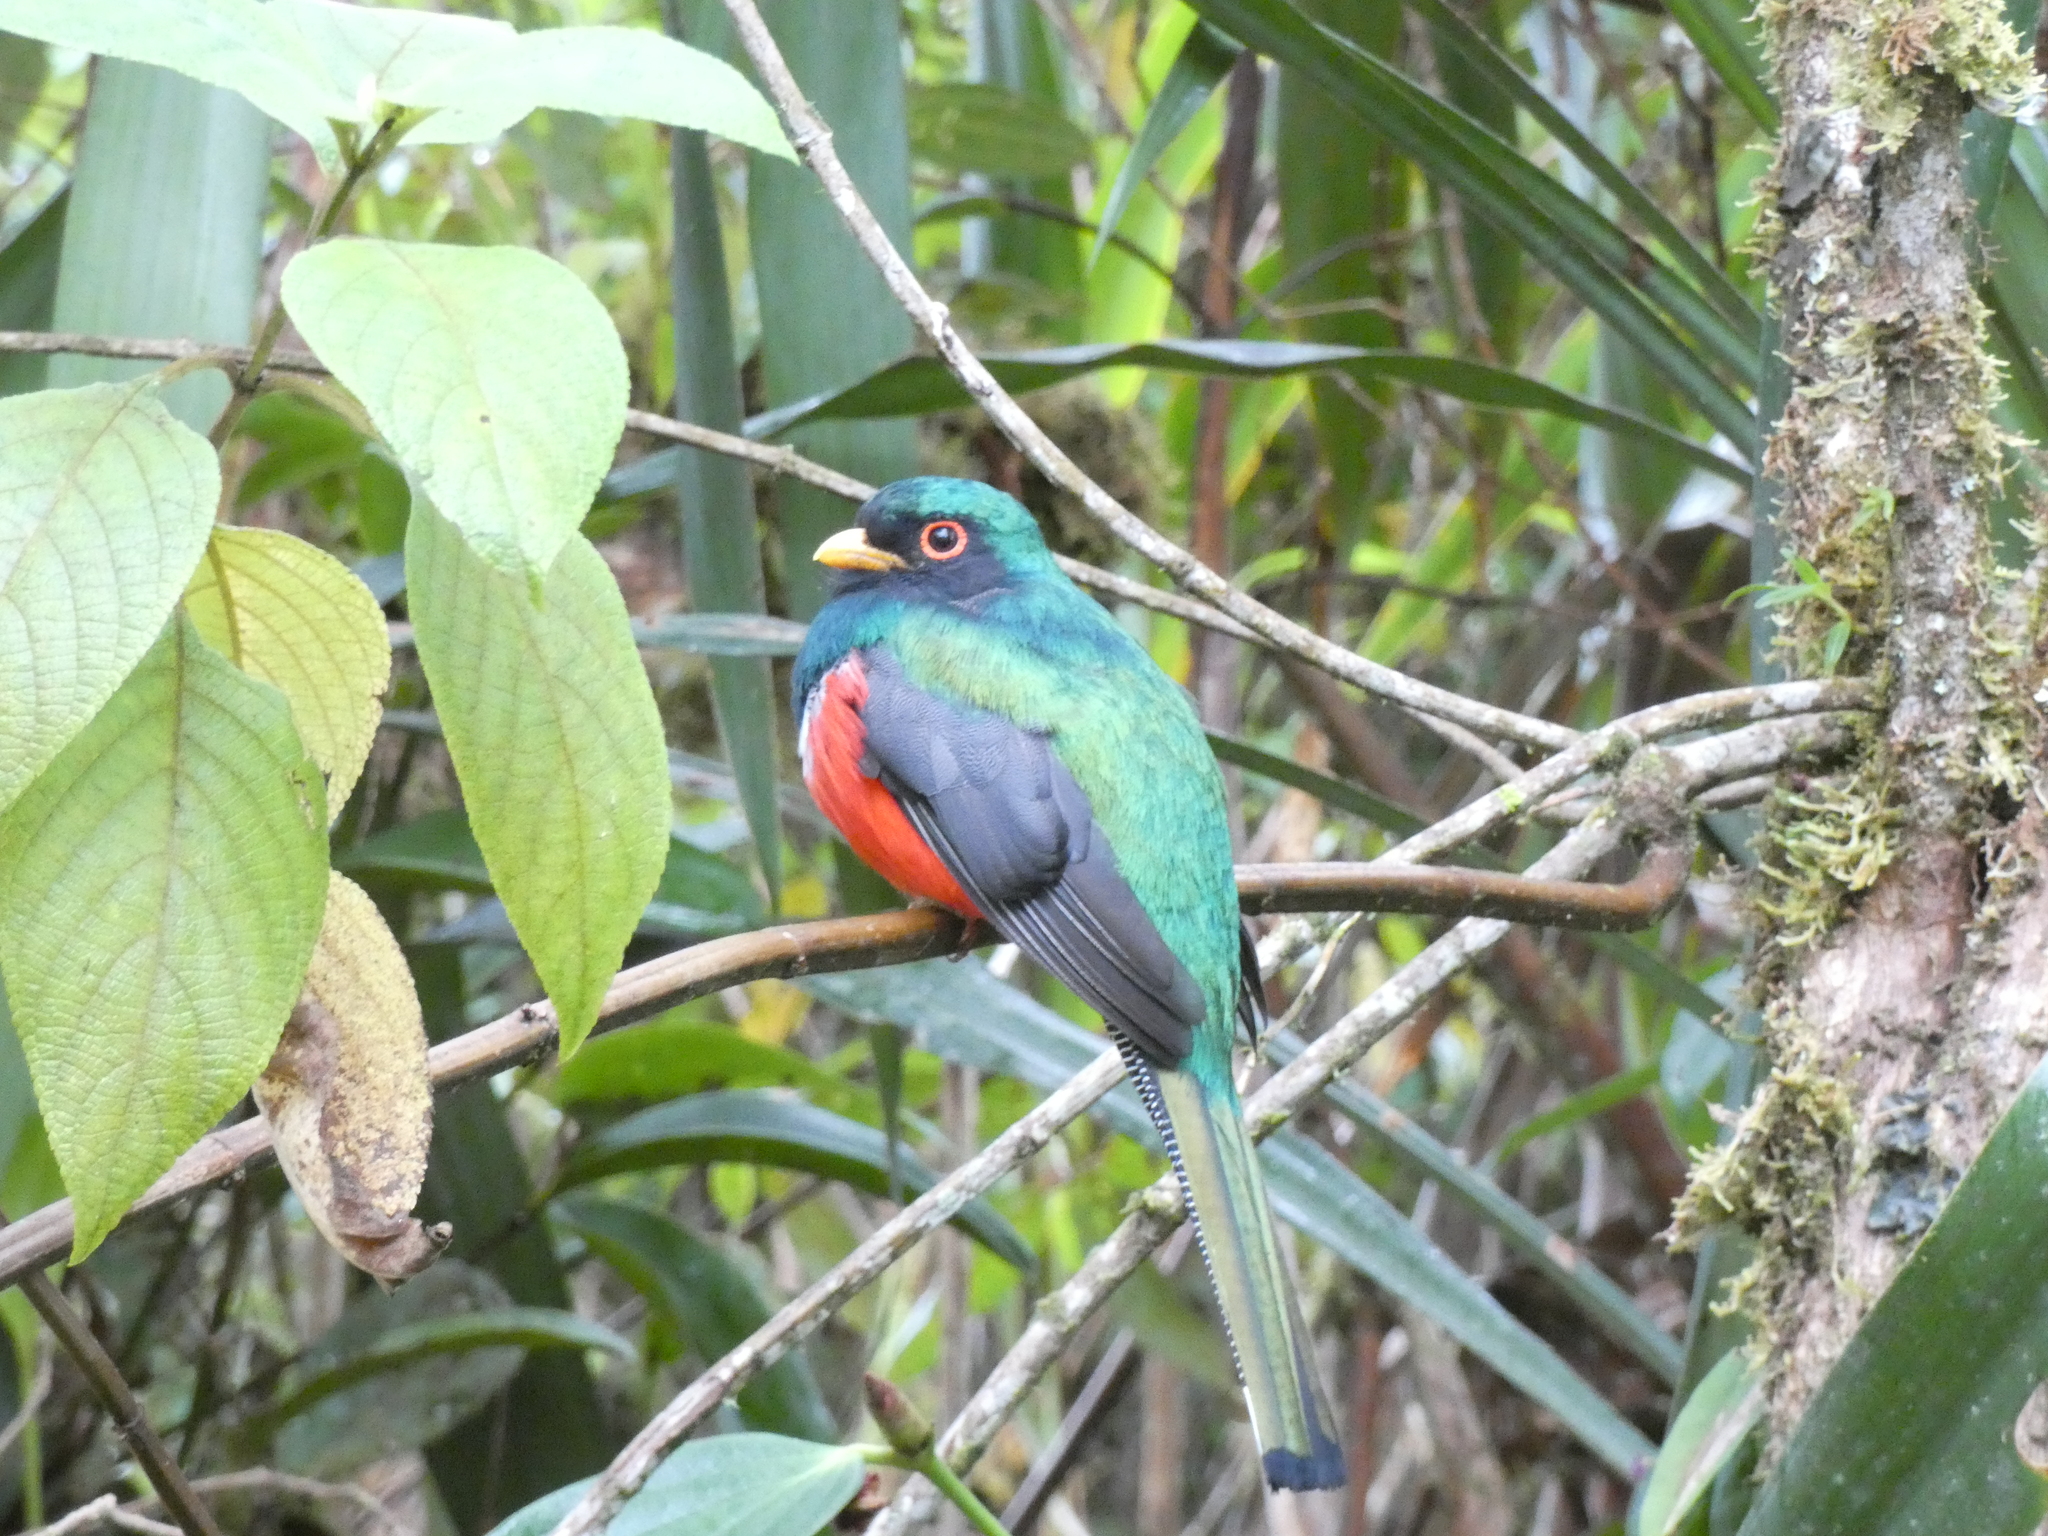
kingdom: Animalia
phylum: Chordata
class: Aves
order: Trogoniformes
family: Trogonidae
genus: Trogon
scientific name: Trogon personatus
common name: Masked trogon
